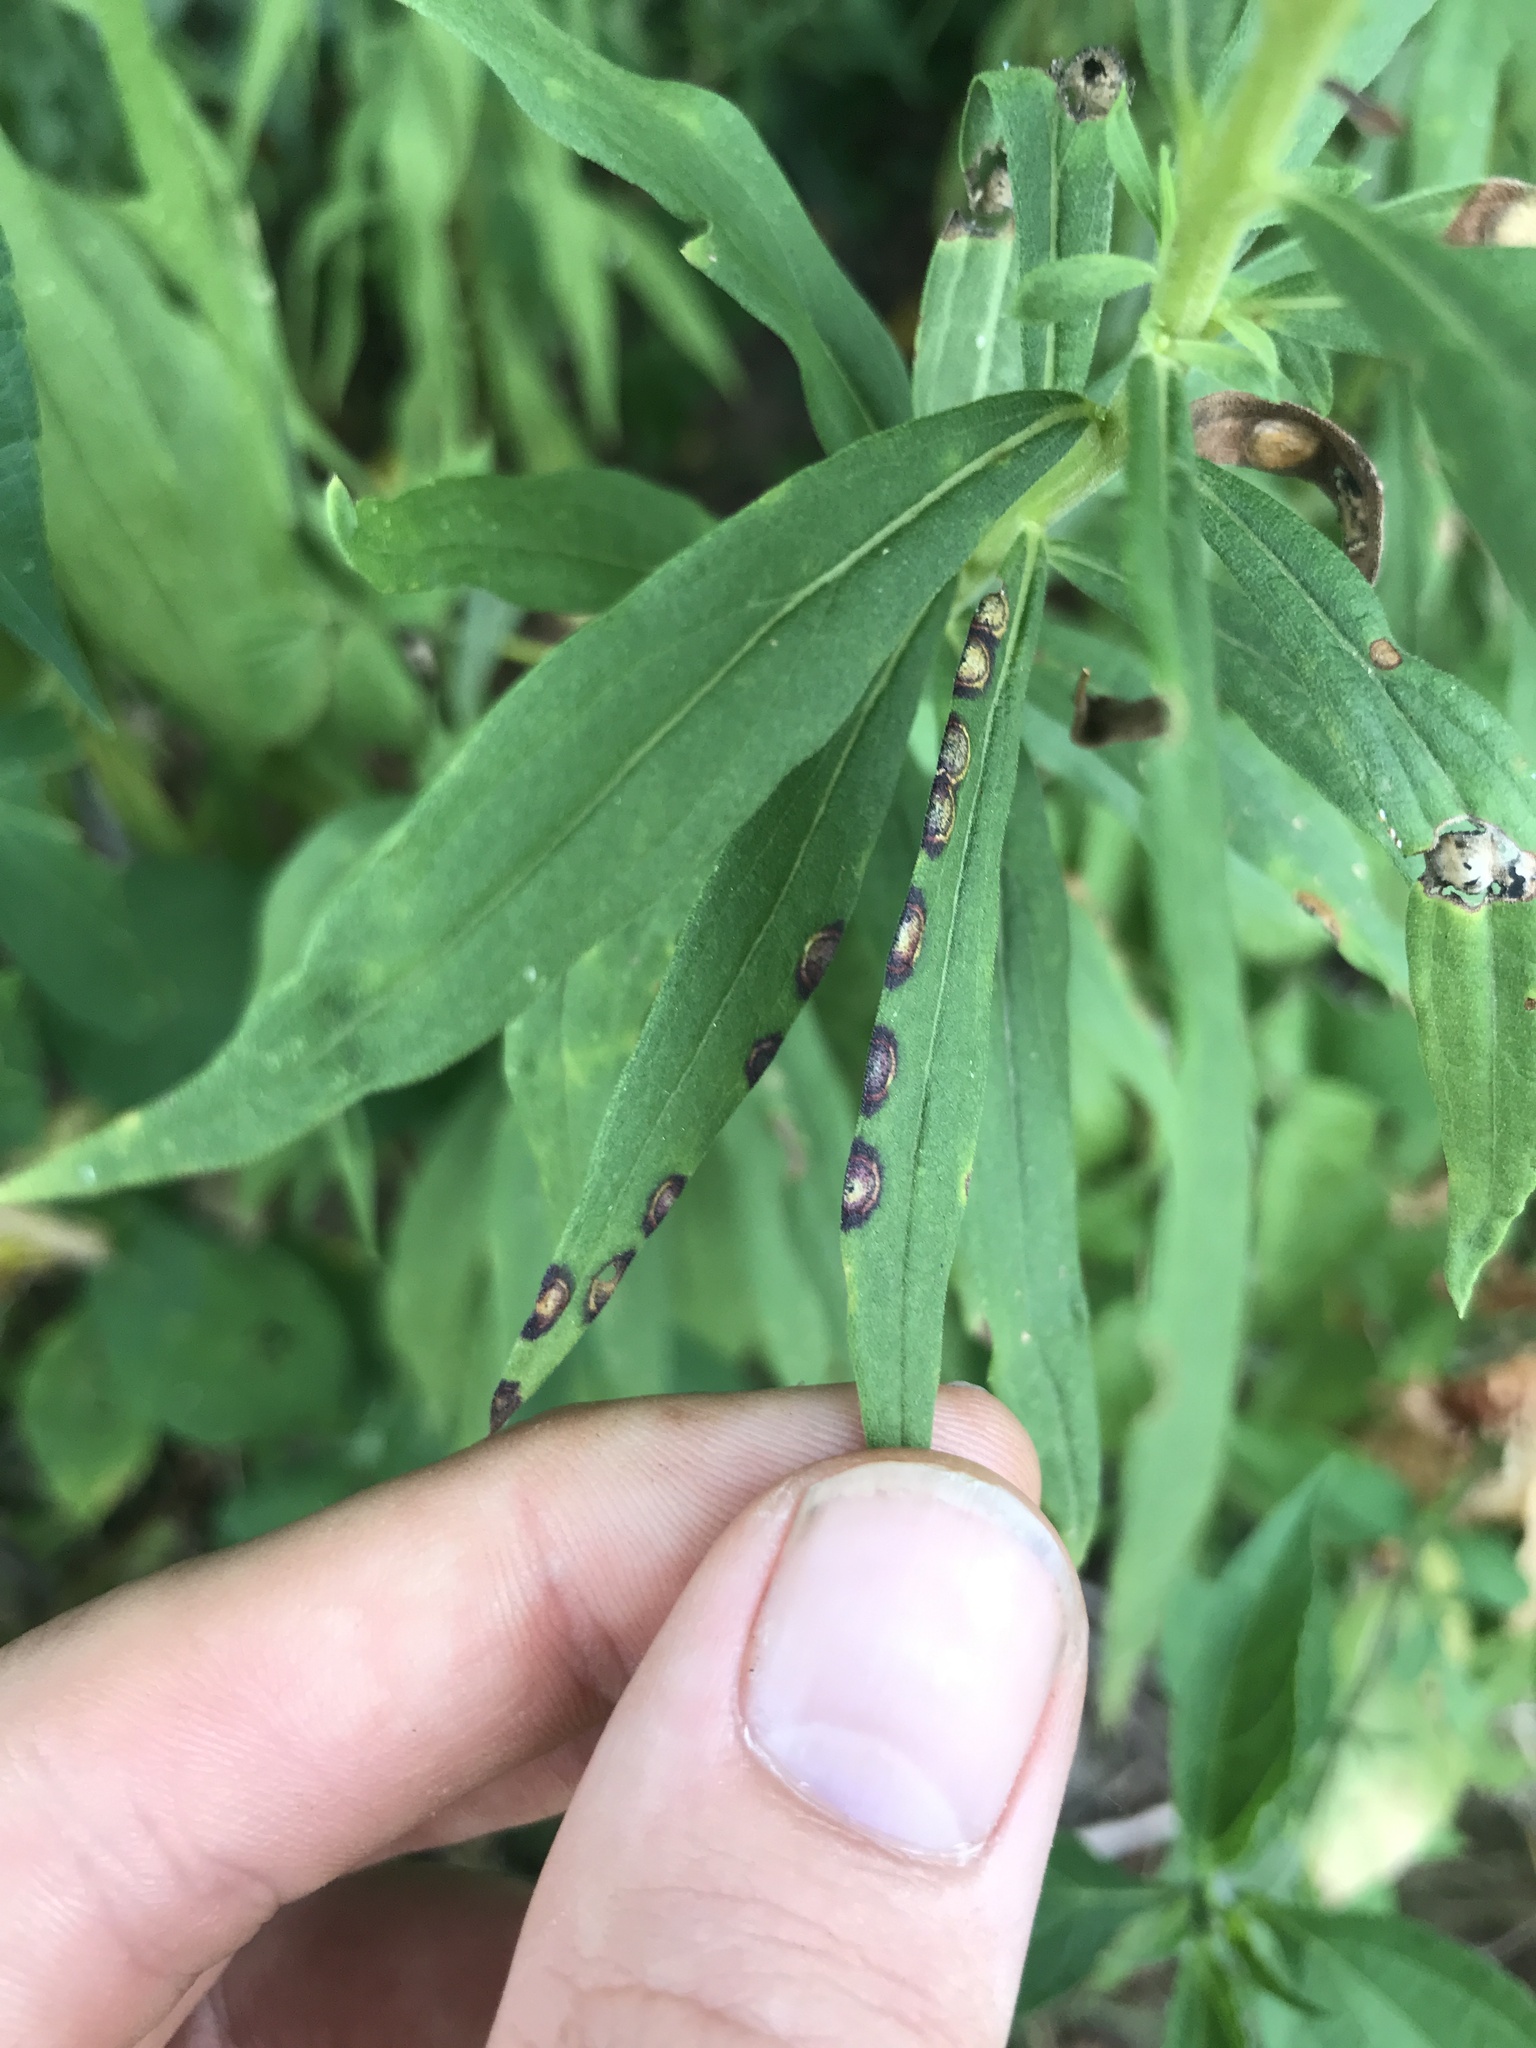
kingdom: Animalia
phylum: Arthropoda
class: Insecta
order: Diptera
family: Cecidomyiidae
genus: Asteromyia
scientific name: Asteromyia carbonifera
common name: Carbonifera goldenrod gall midge
